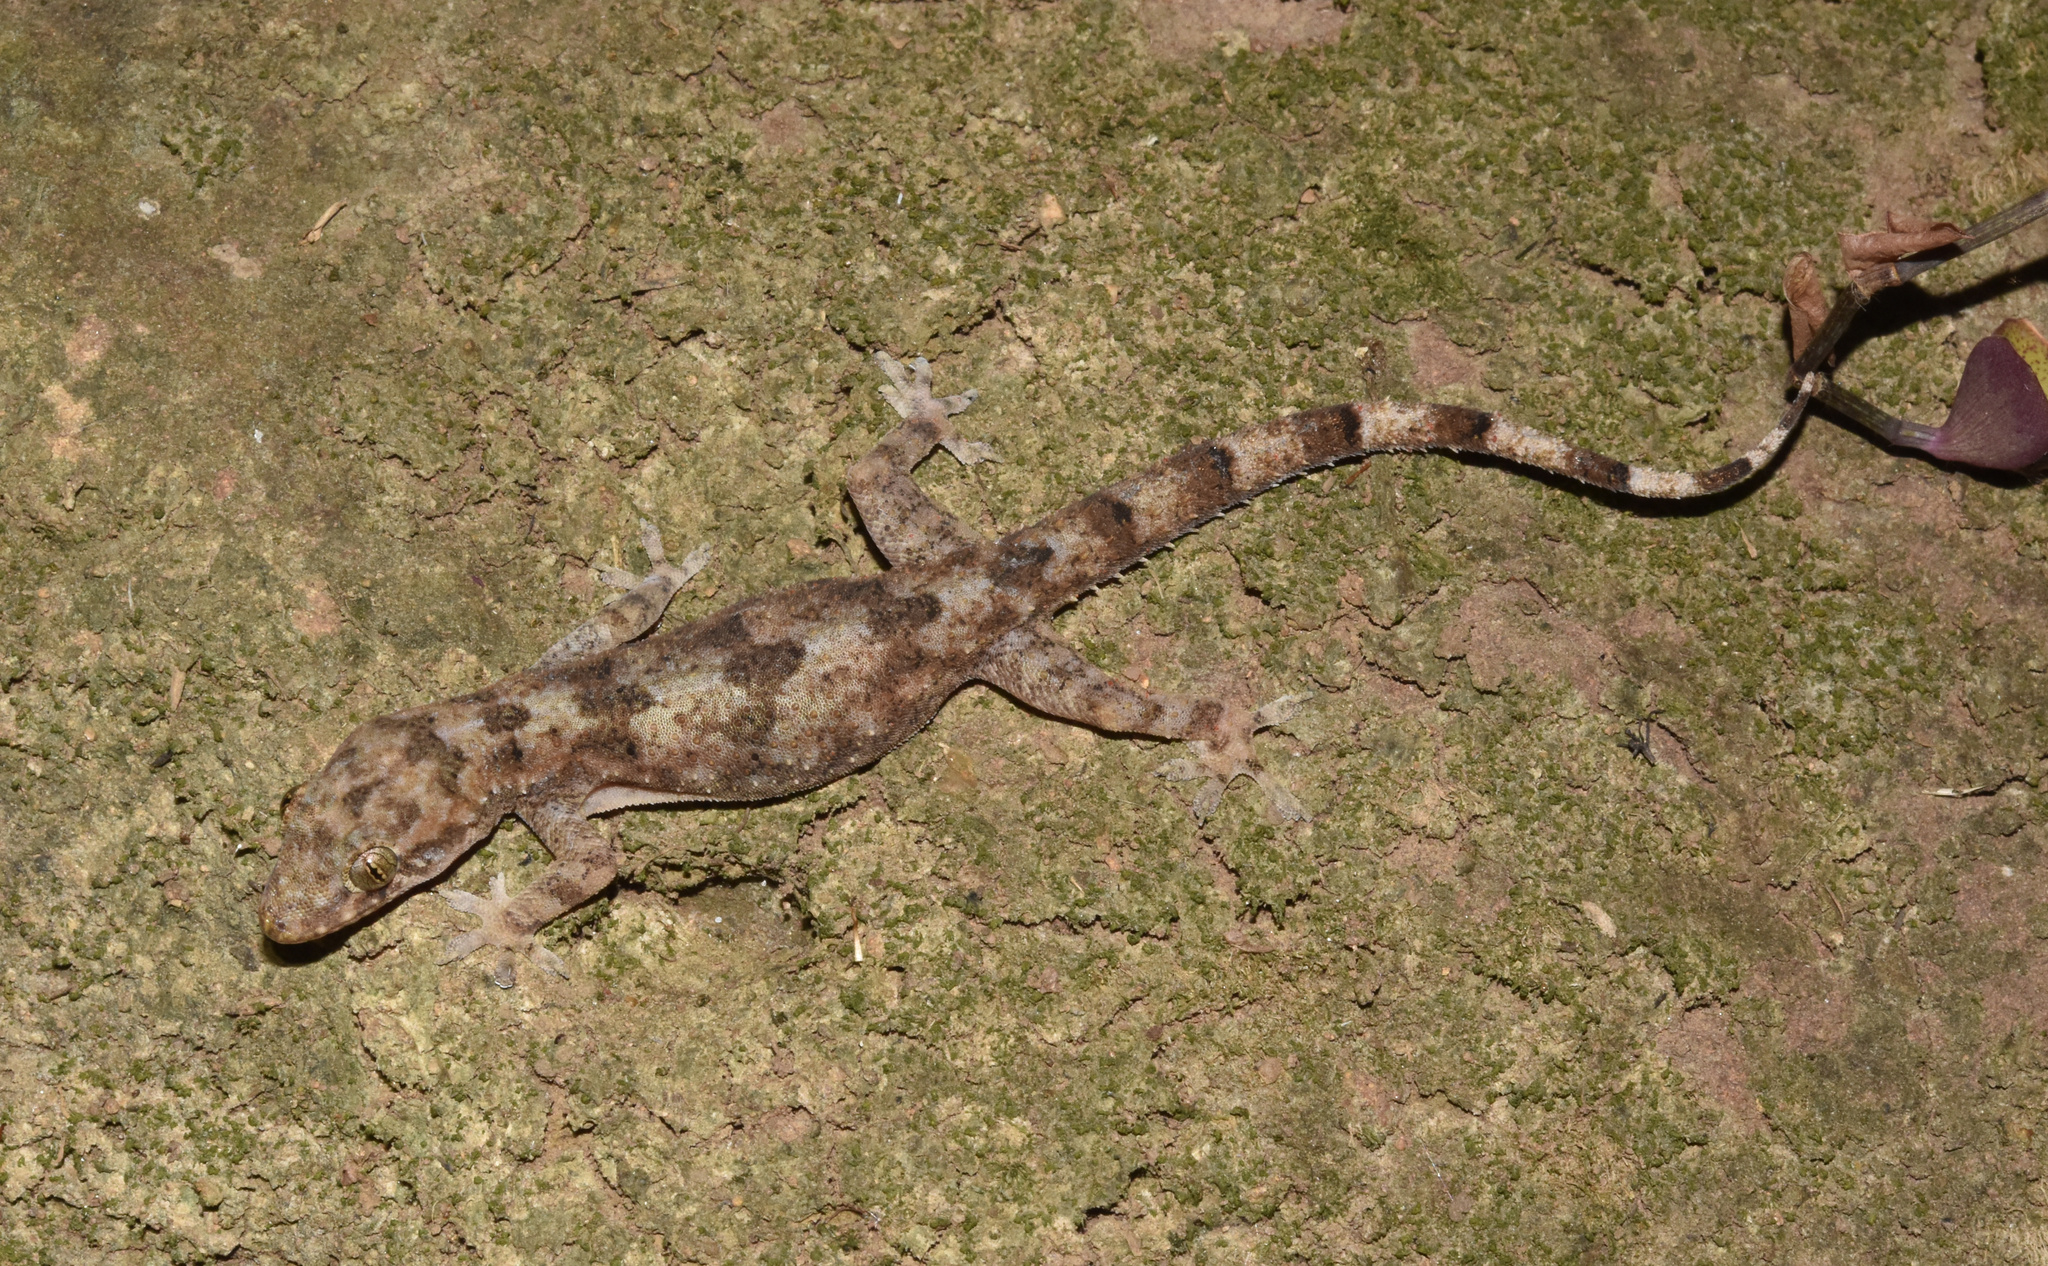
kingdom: Animalia
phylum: Chordata
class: Squamata
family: Gekkonidae
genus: Hemidactylus
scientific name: Hemidactylus mabouia
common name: House gecko
